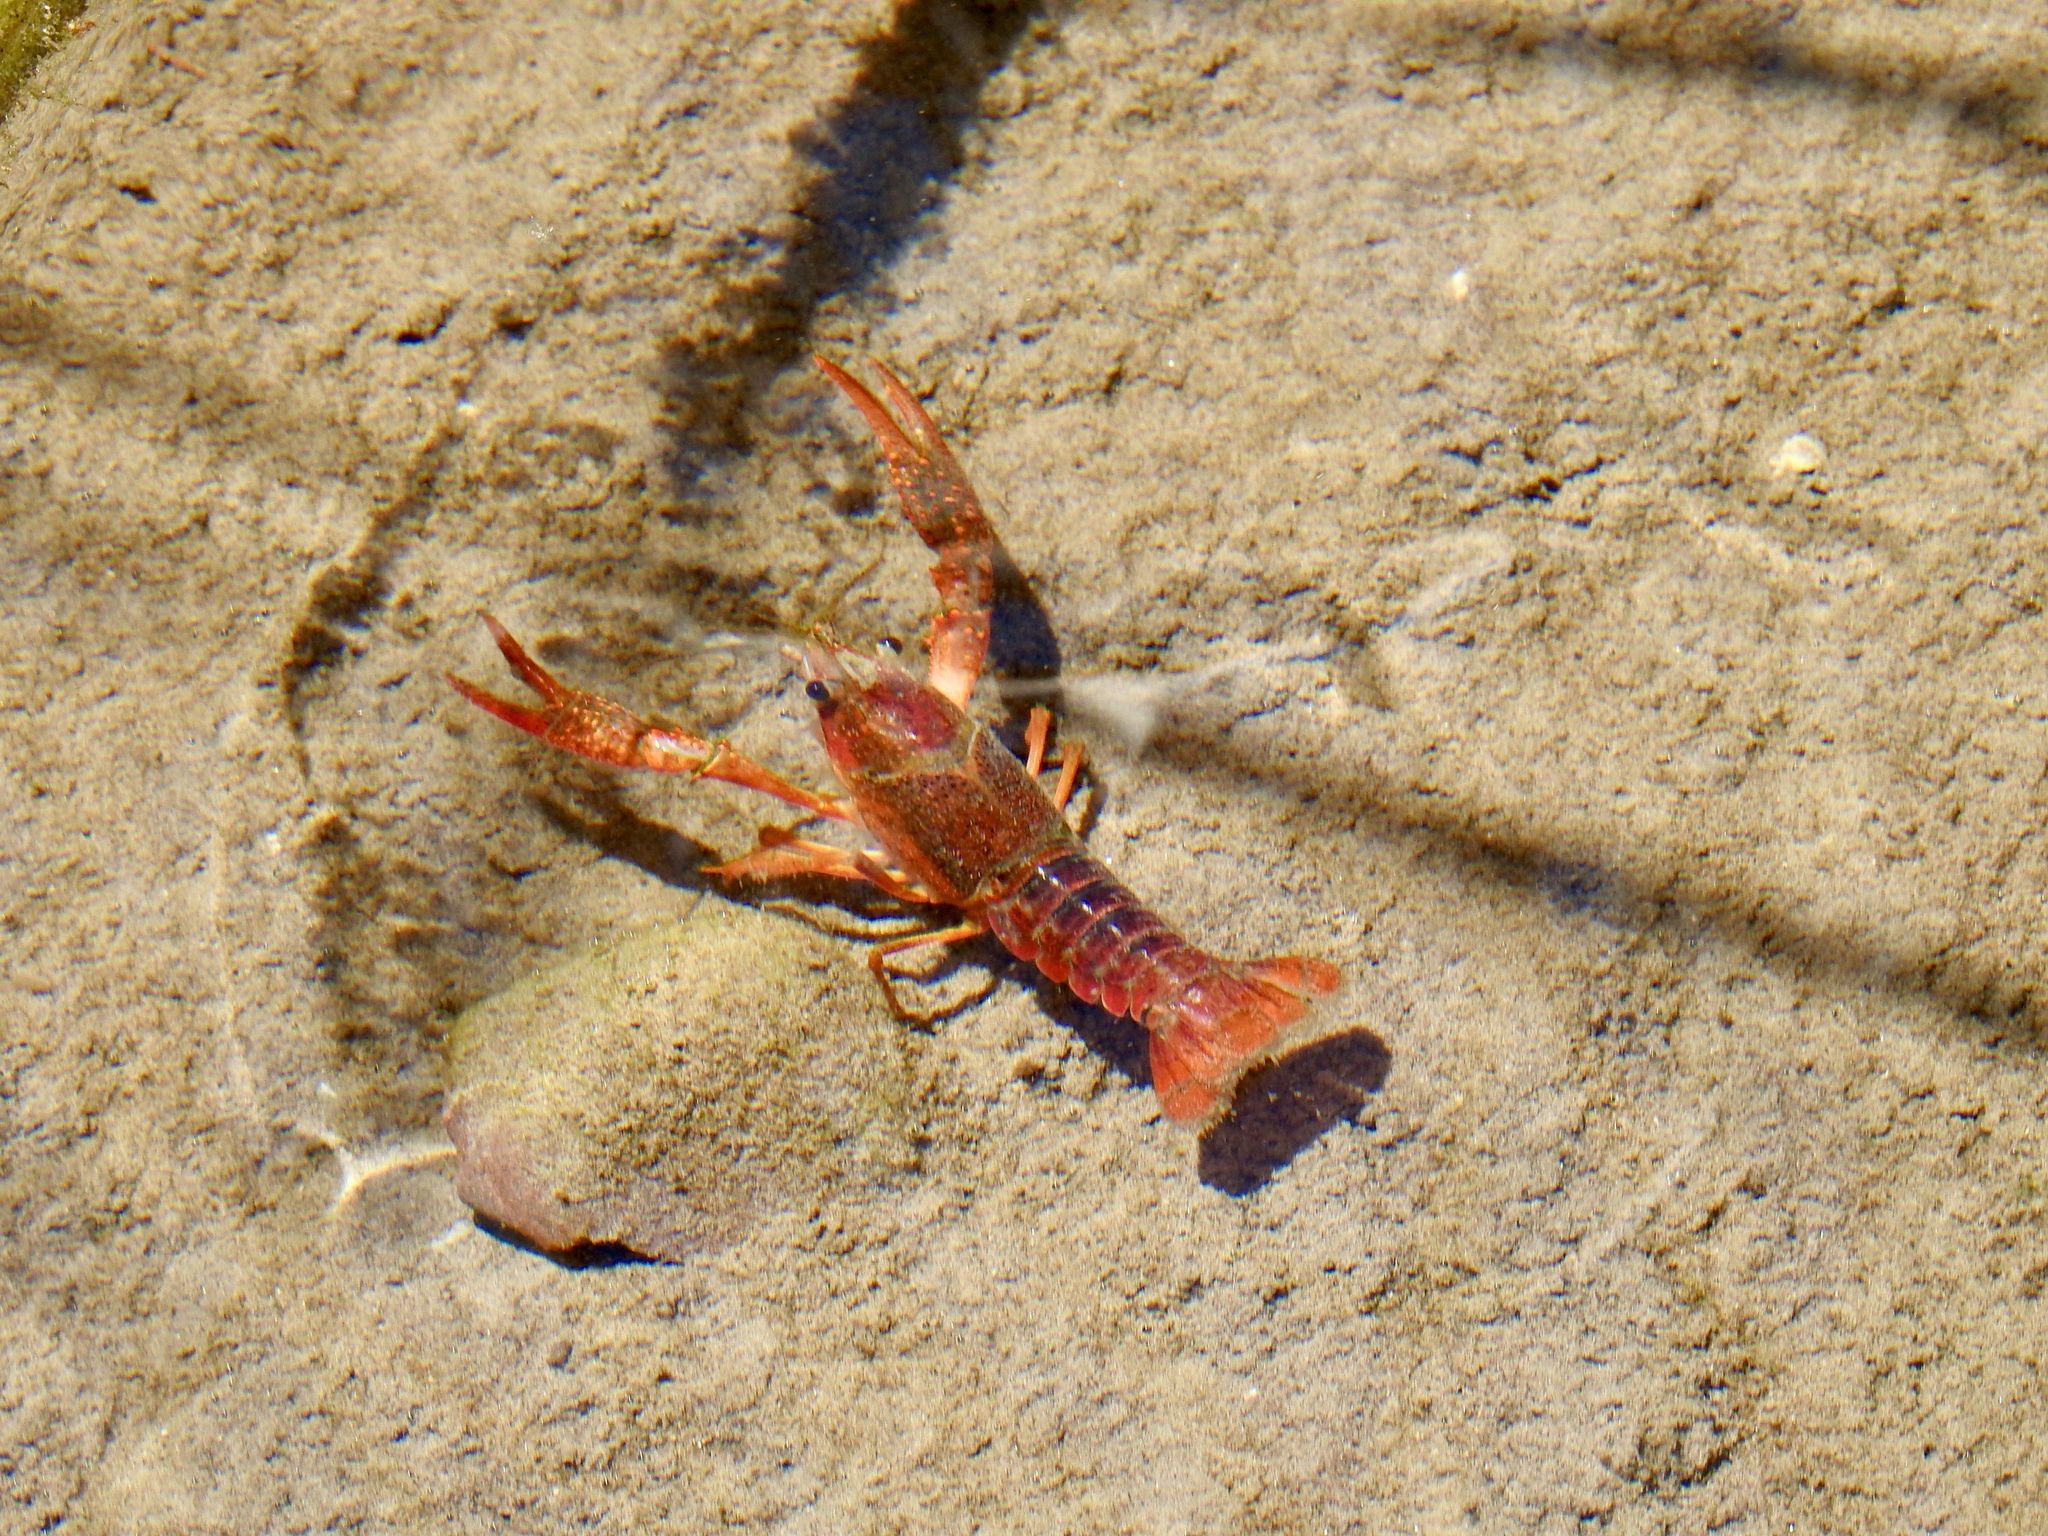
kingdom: Animalia
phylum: Arthropoda
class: Malacostraca
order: Decapoda
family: Cambaridae
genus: Procambarus
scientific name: Procambarus clarkii
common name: Red swamp crayfish
